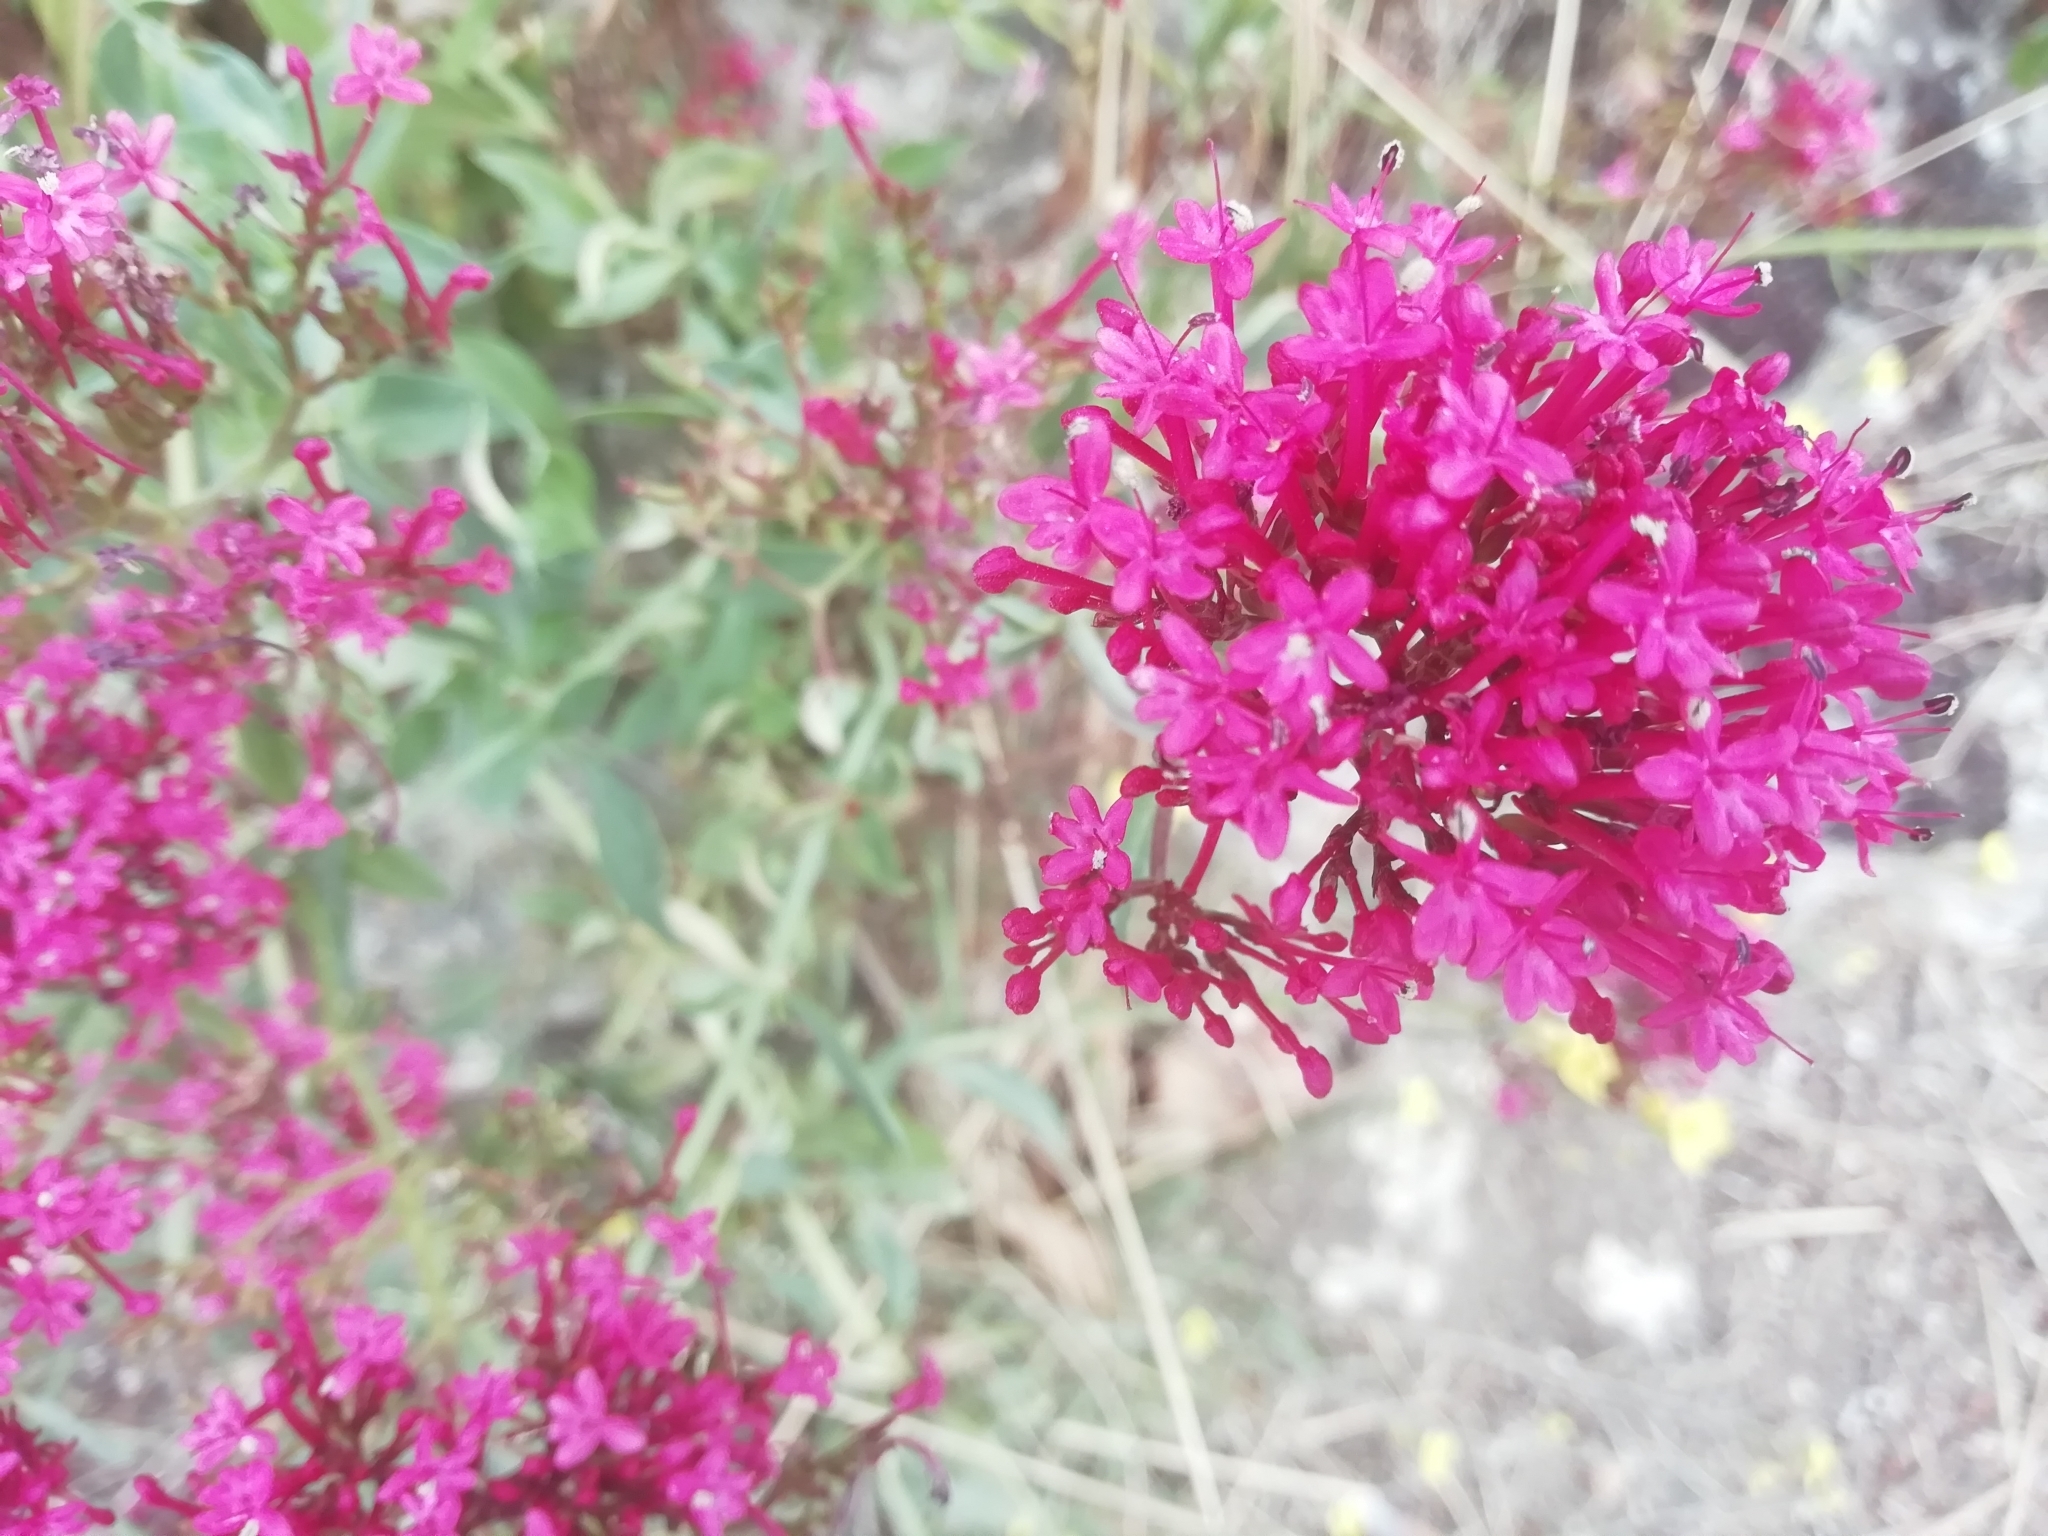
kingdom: Plantae
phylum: Tracheophyta
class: Magnoliopsida
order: Dipsacales
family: Caprifoliaceae
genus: Centranthus
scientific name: Centranthus ruber
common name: Red valerian
